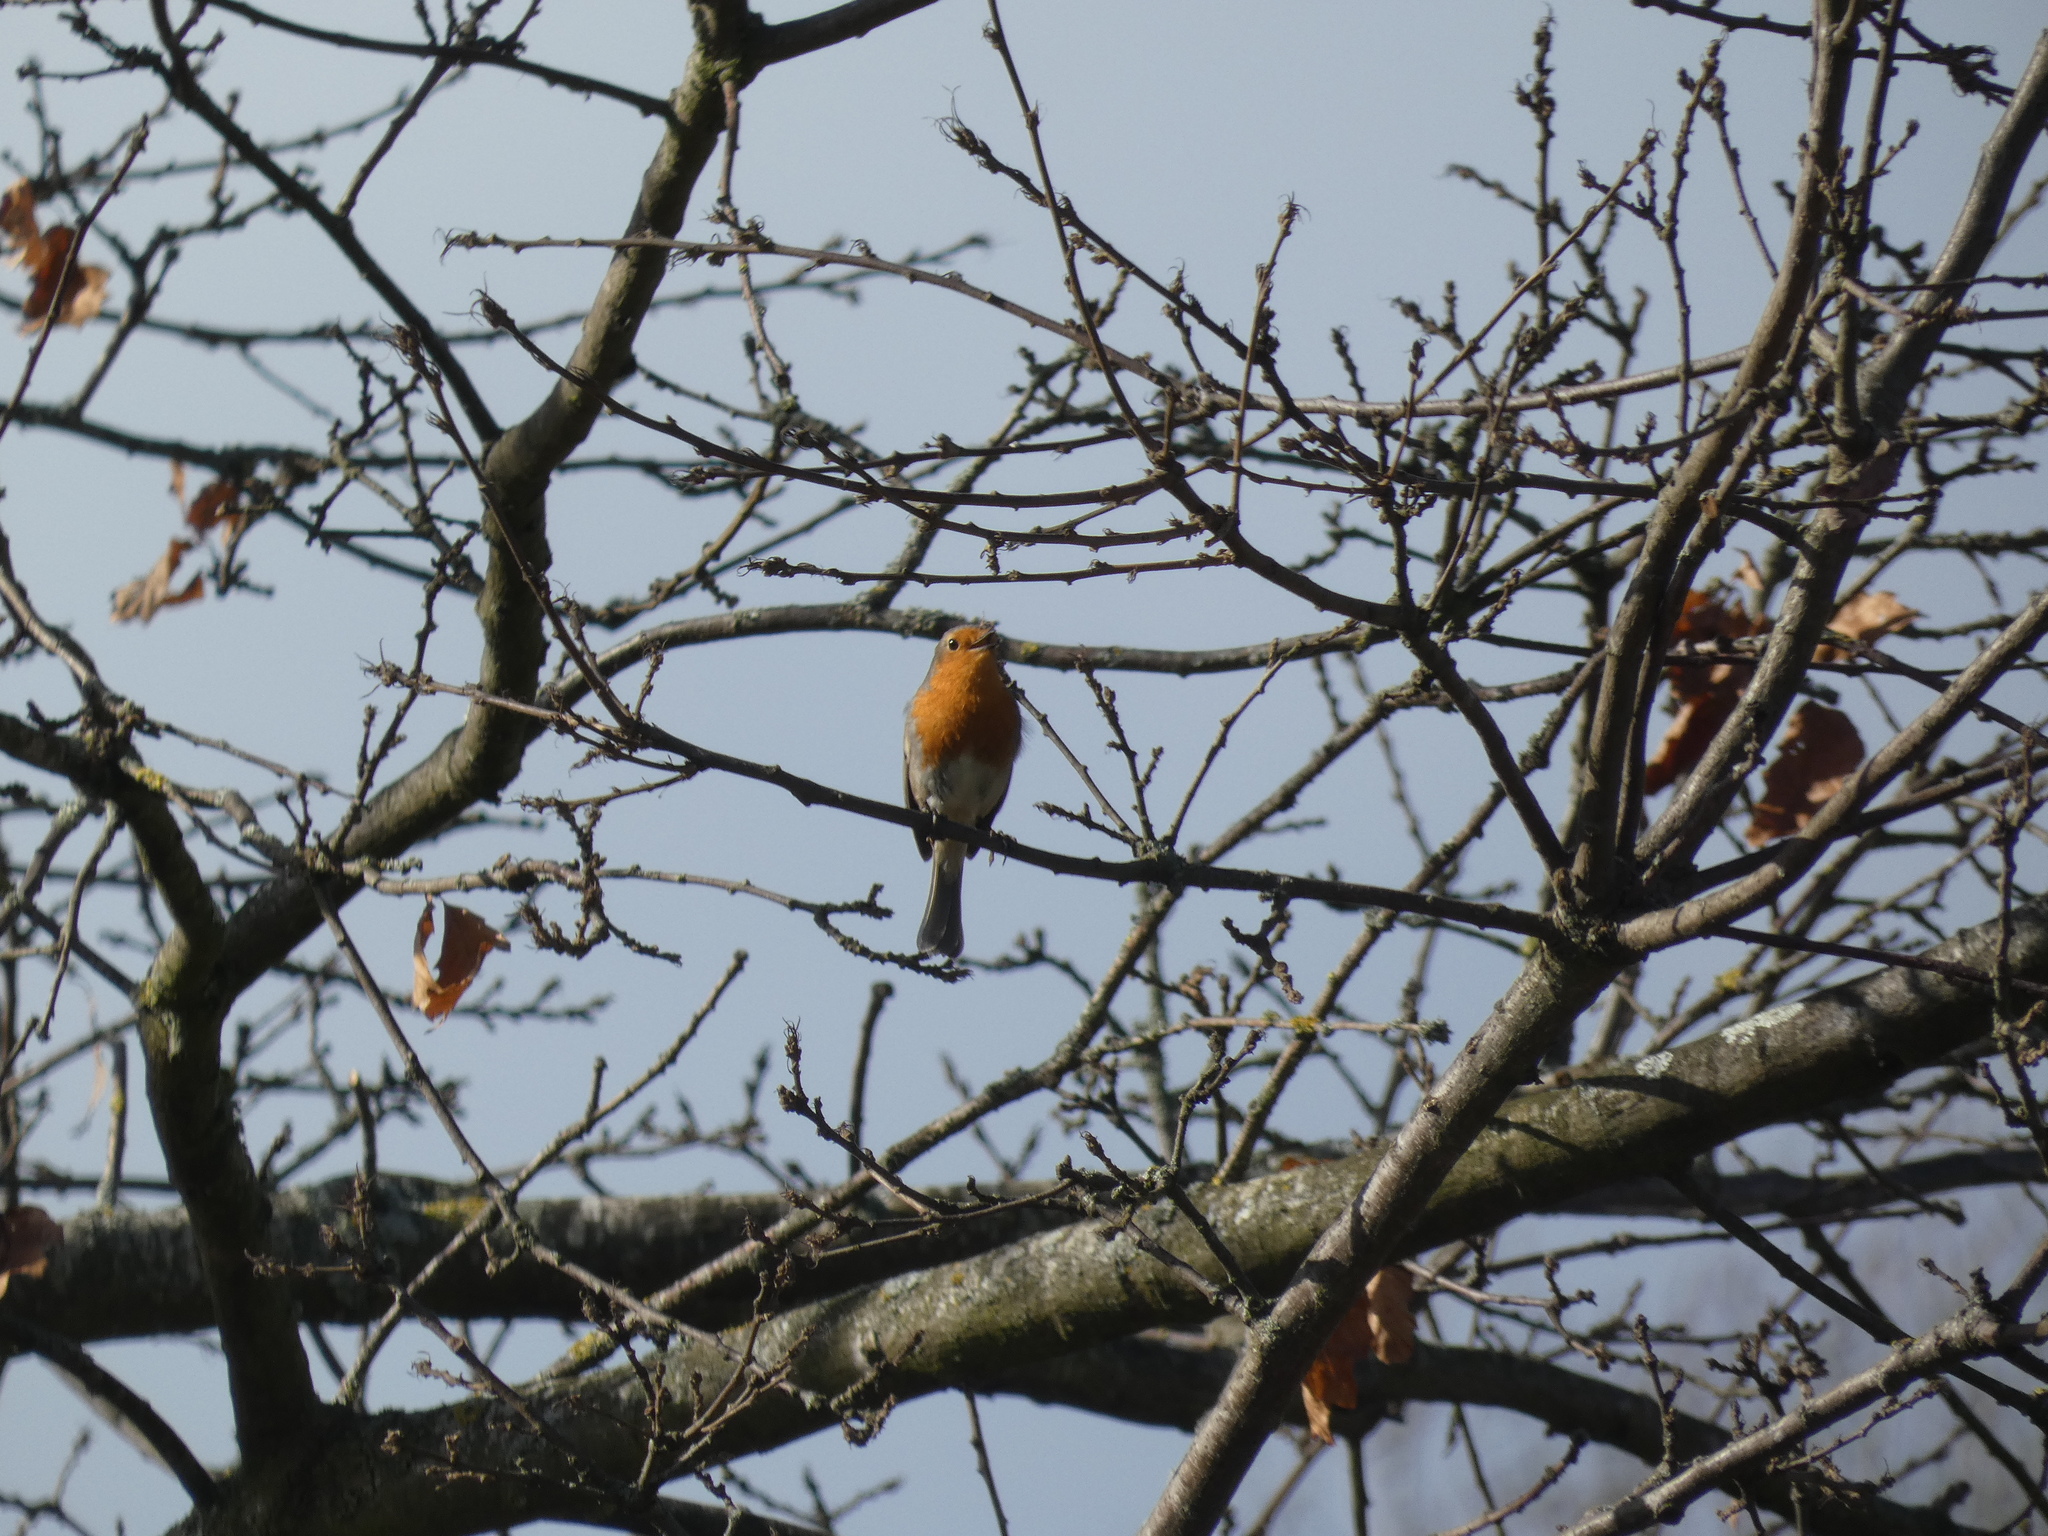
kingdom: Animalia
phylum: Chordata
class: Aves
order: Passeriformes
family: Muscicapidae
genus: Erithacus
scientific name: Erithacus rubecula
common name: European robin
